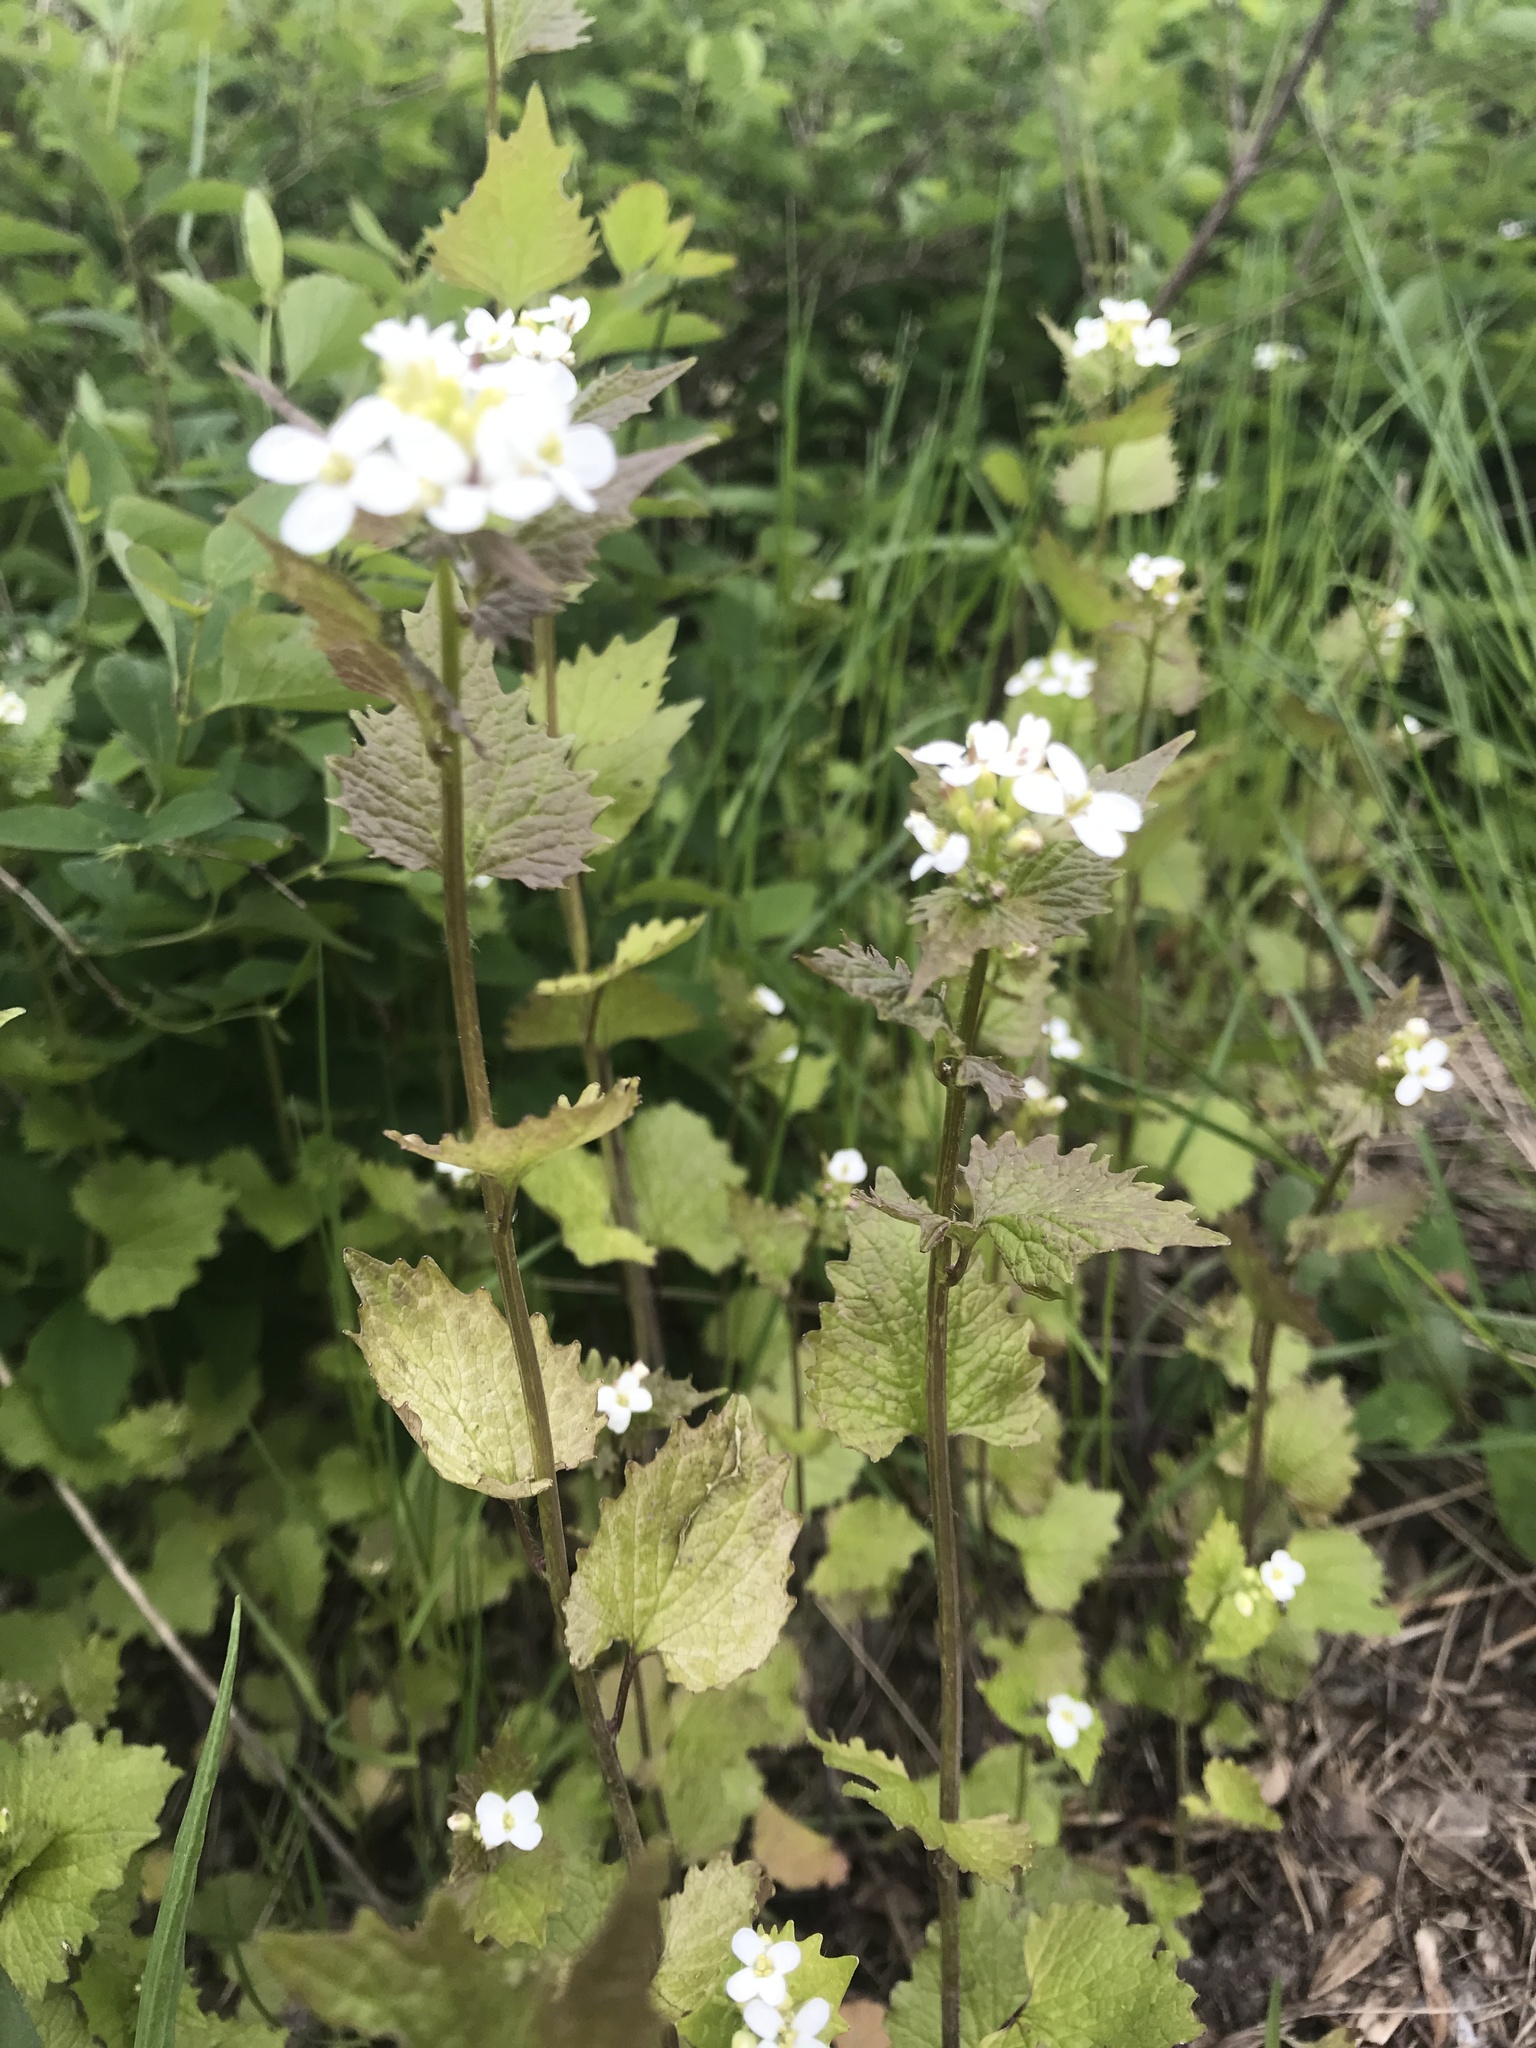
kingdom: Plantae
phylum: Tracheophyta
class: Magnoliopsida
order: Brassicales
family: Brassicaceae
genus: Alliaria
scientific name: Alliaria petiolata
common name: Garlic mustard
